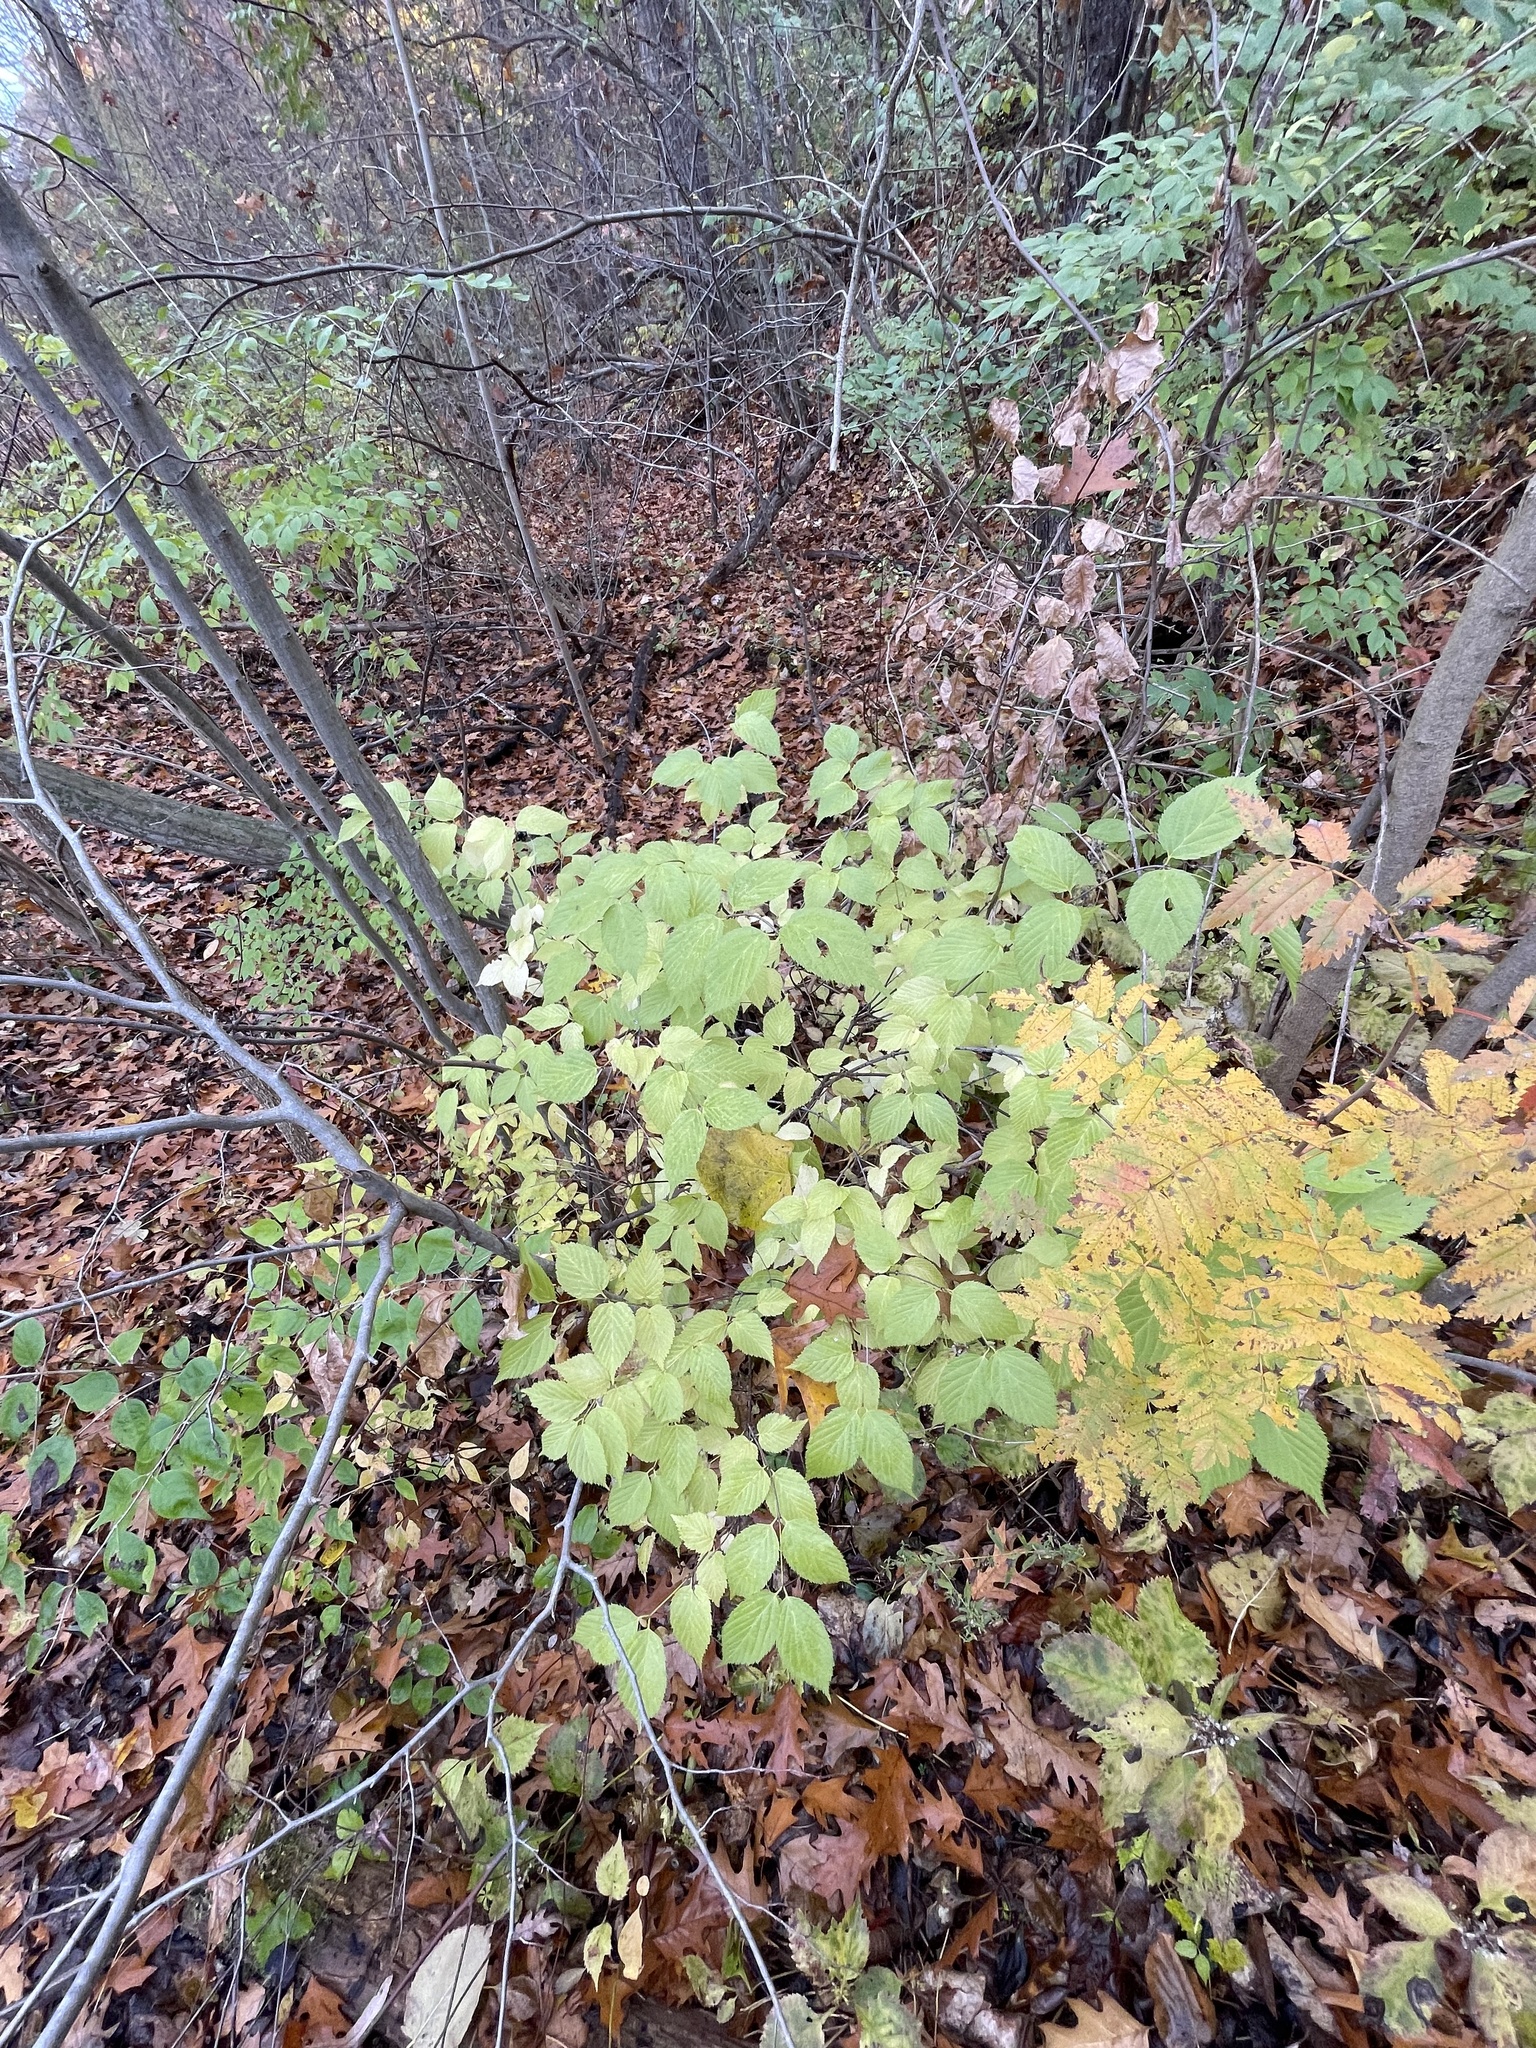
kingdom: Plantae
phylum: Tracheophyta
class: Magnoliopsida
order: Rosales
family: Rosaceae
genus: Rhodotypos
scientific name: Rhodotypos scandens
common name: Jetbead
